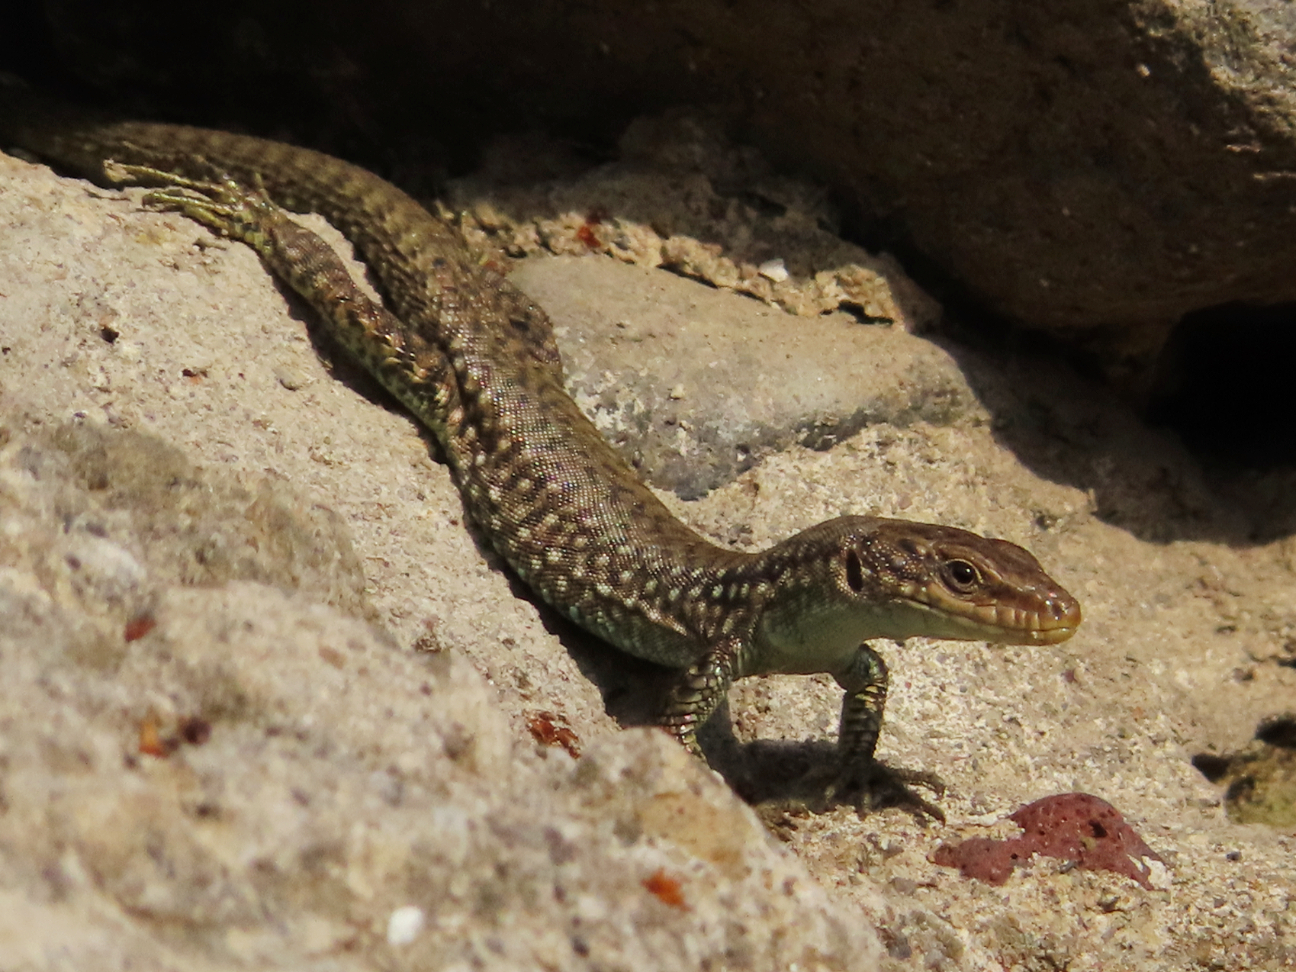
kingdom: Animalia
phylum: Chordata
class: Squamata
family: Lacertidae
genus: Darevskia
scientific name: Darevskia
